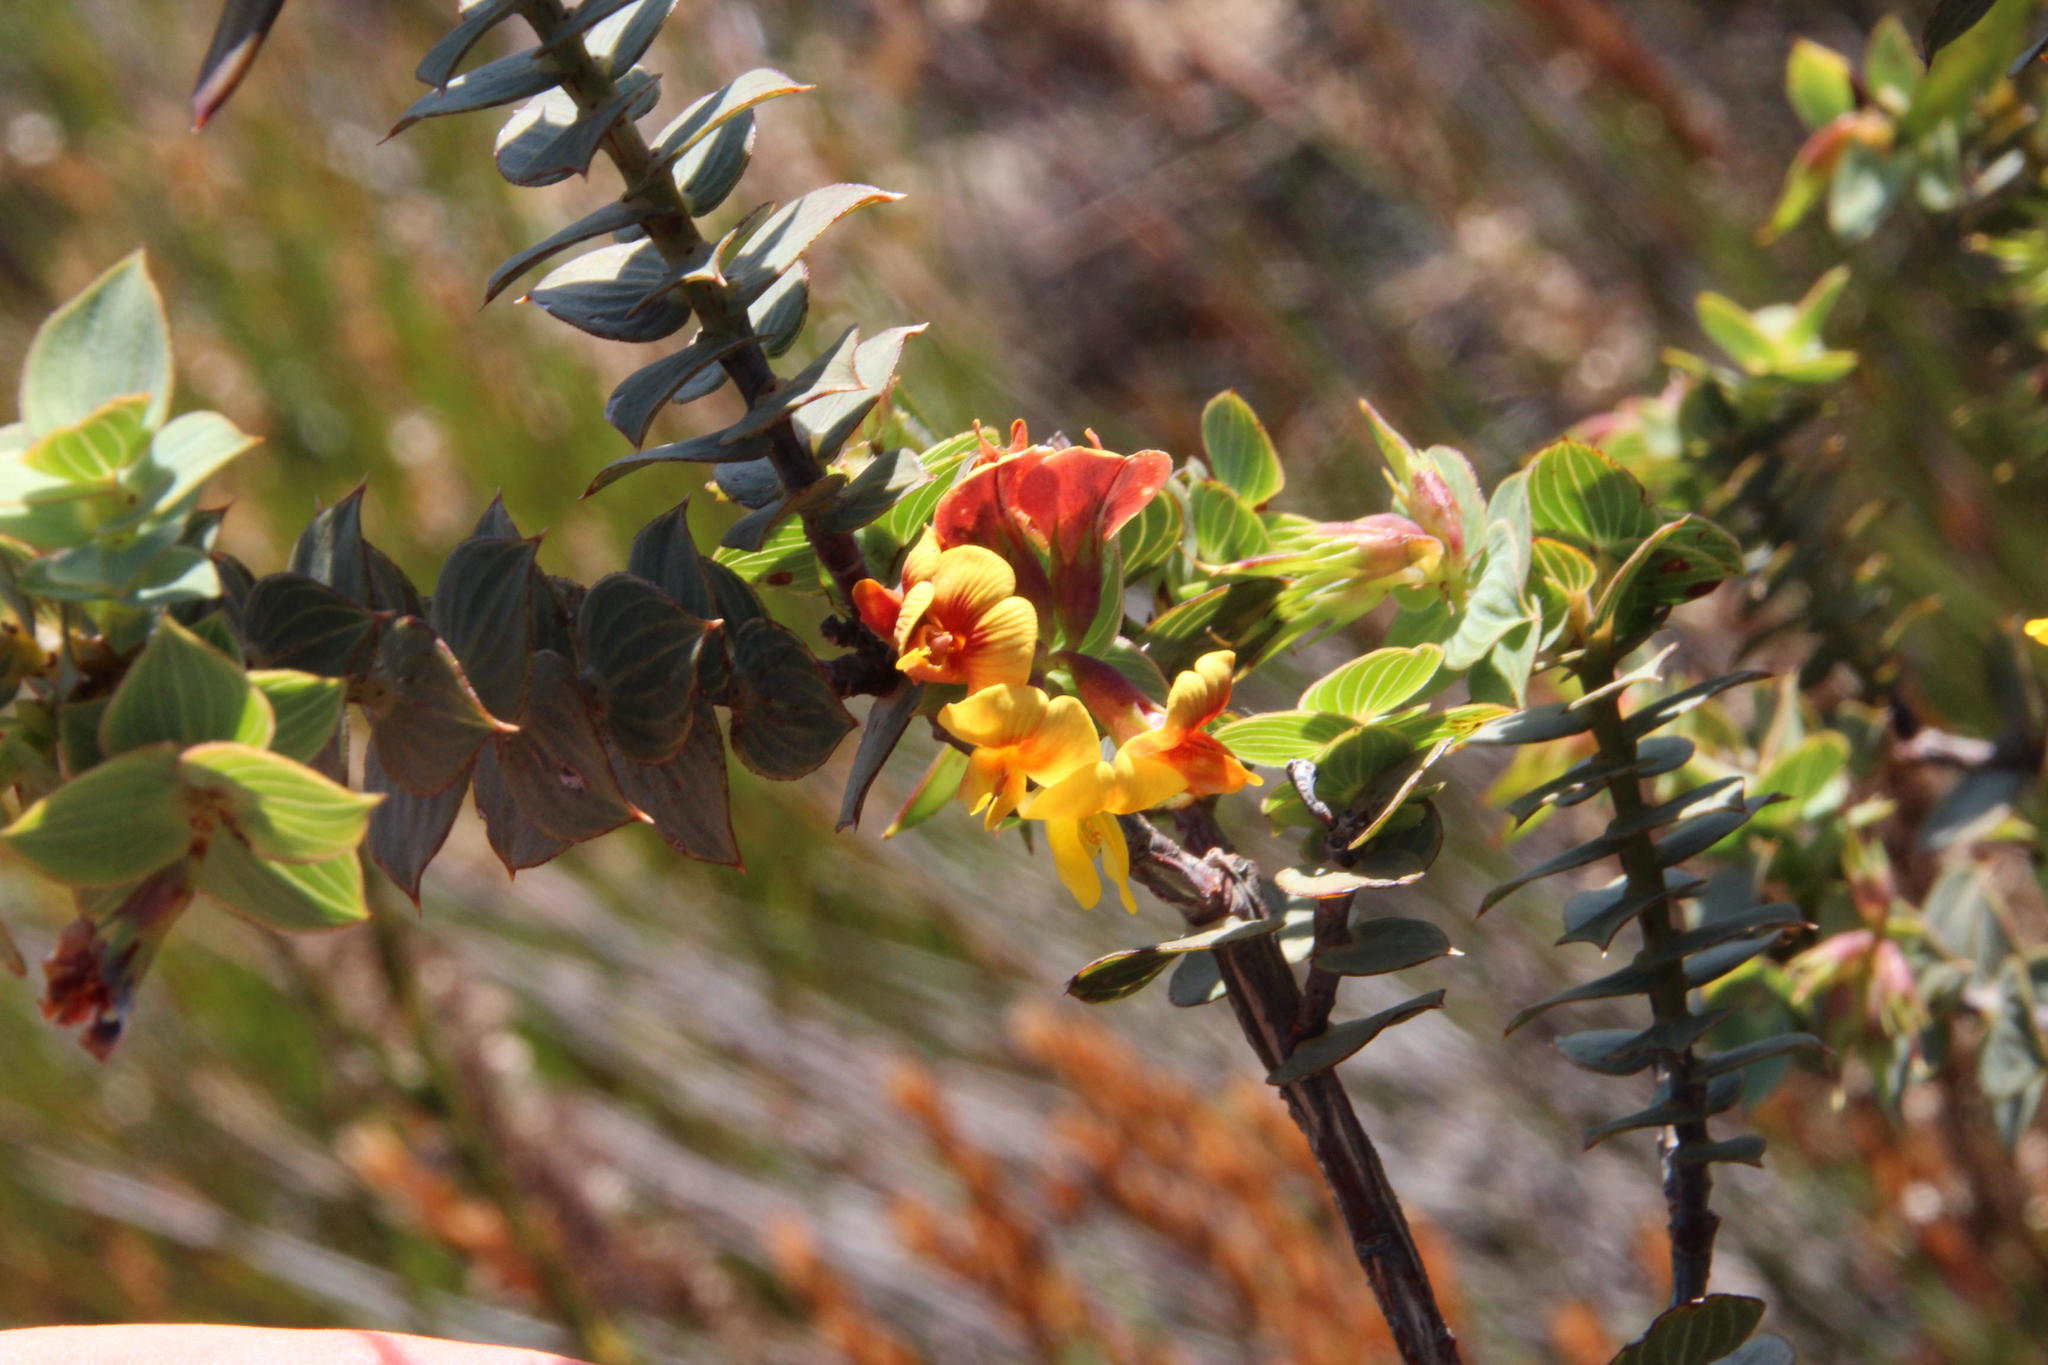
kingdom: Plantae
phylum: Tracheophyta
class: Magnoliopsida
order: Fabales
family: Fabaceae
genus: Aspalathus
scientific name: Aspalathus crenata
